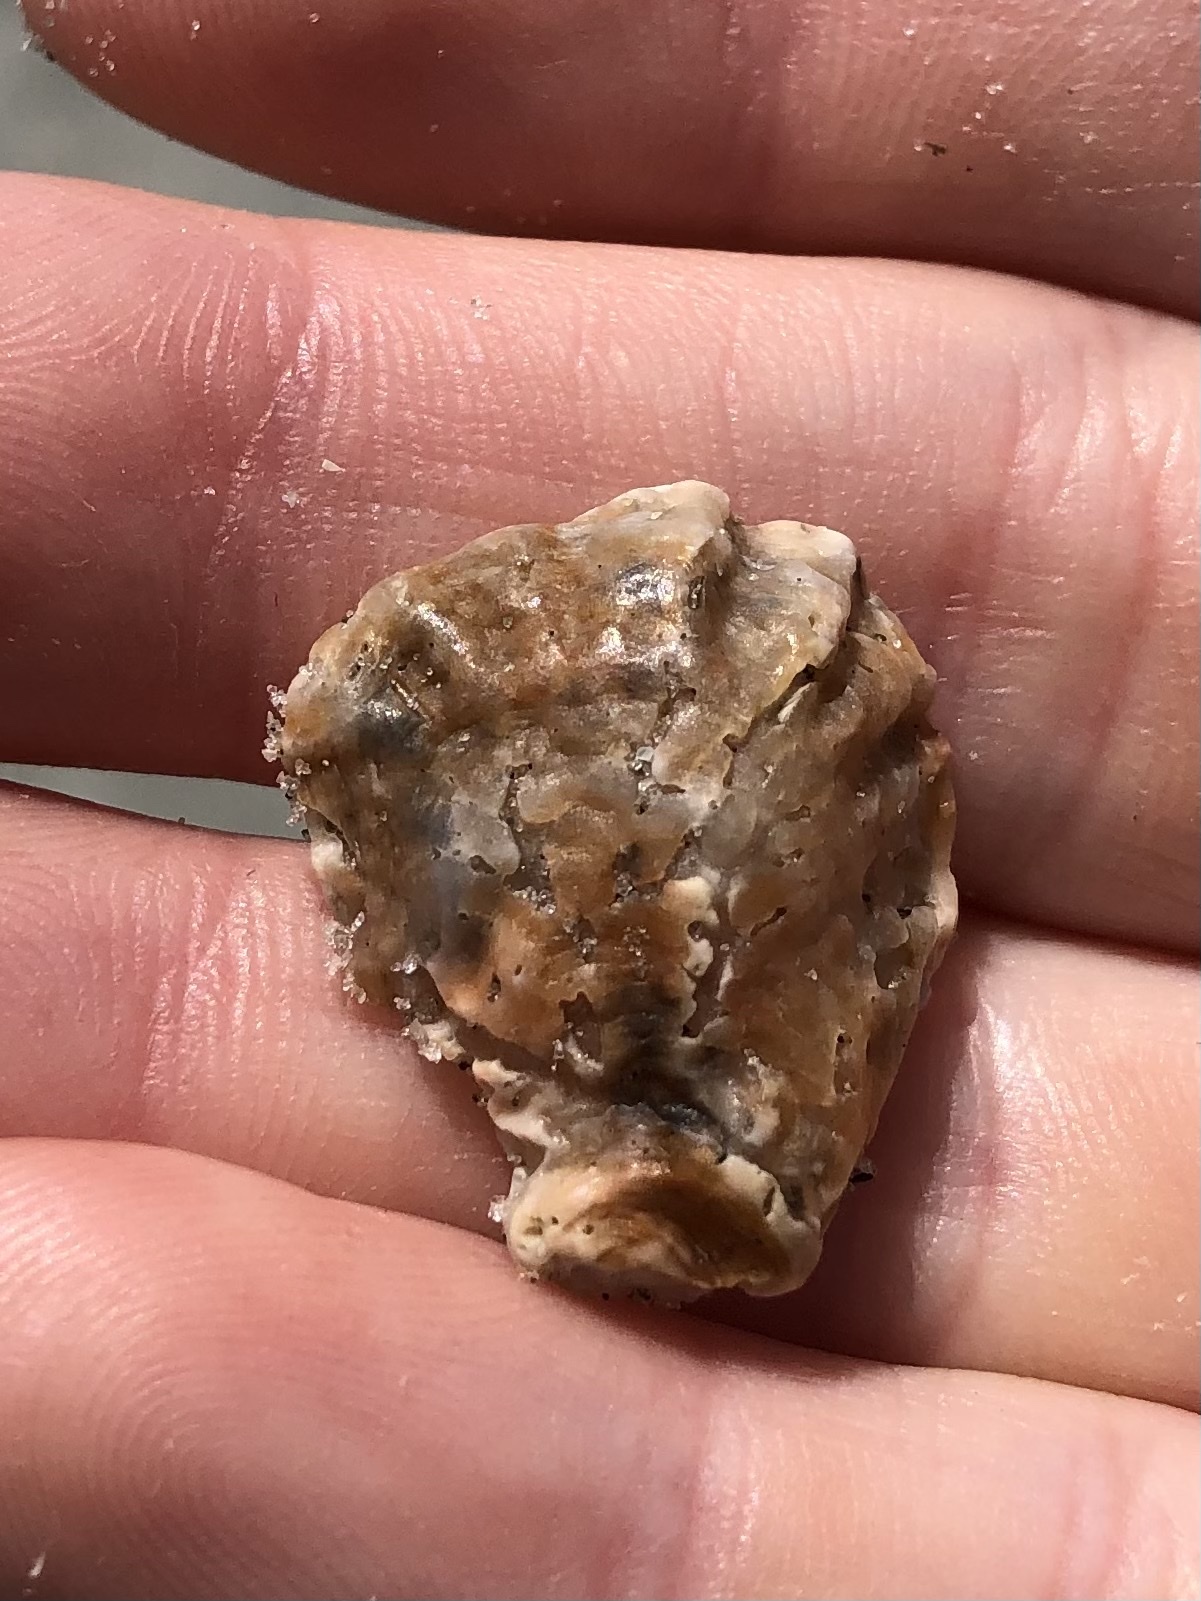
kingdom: Animalia
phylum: Mollusca
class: Bivalvia
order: Ostreida
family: Ostreidae
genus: Crassostrea
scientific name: Crassostrea virginica
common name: American oyster
